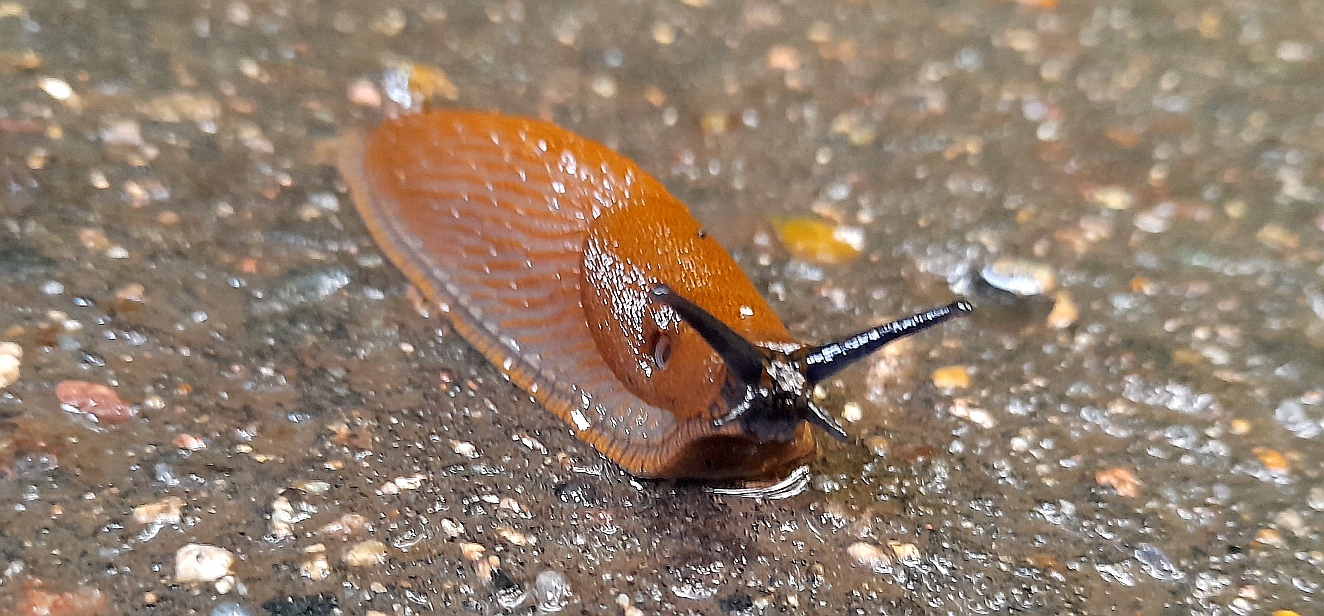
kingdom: Animalia
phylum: Mollusca
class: Gastropoda
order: Stylommatophora
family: Arionidae
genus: Arion
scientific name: Arion vulgaris
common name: Lusitanian slug
